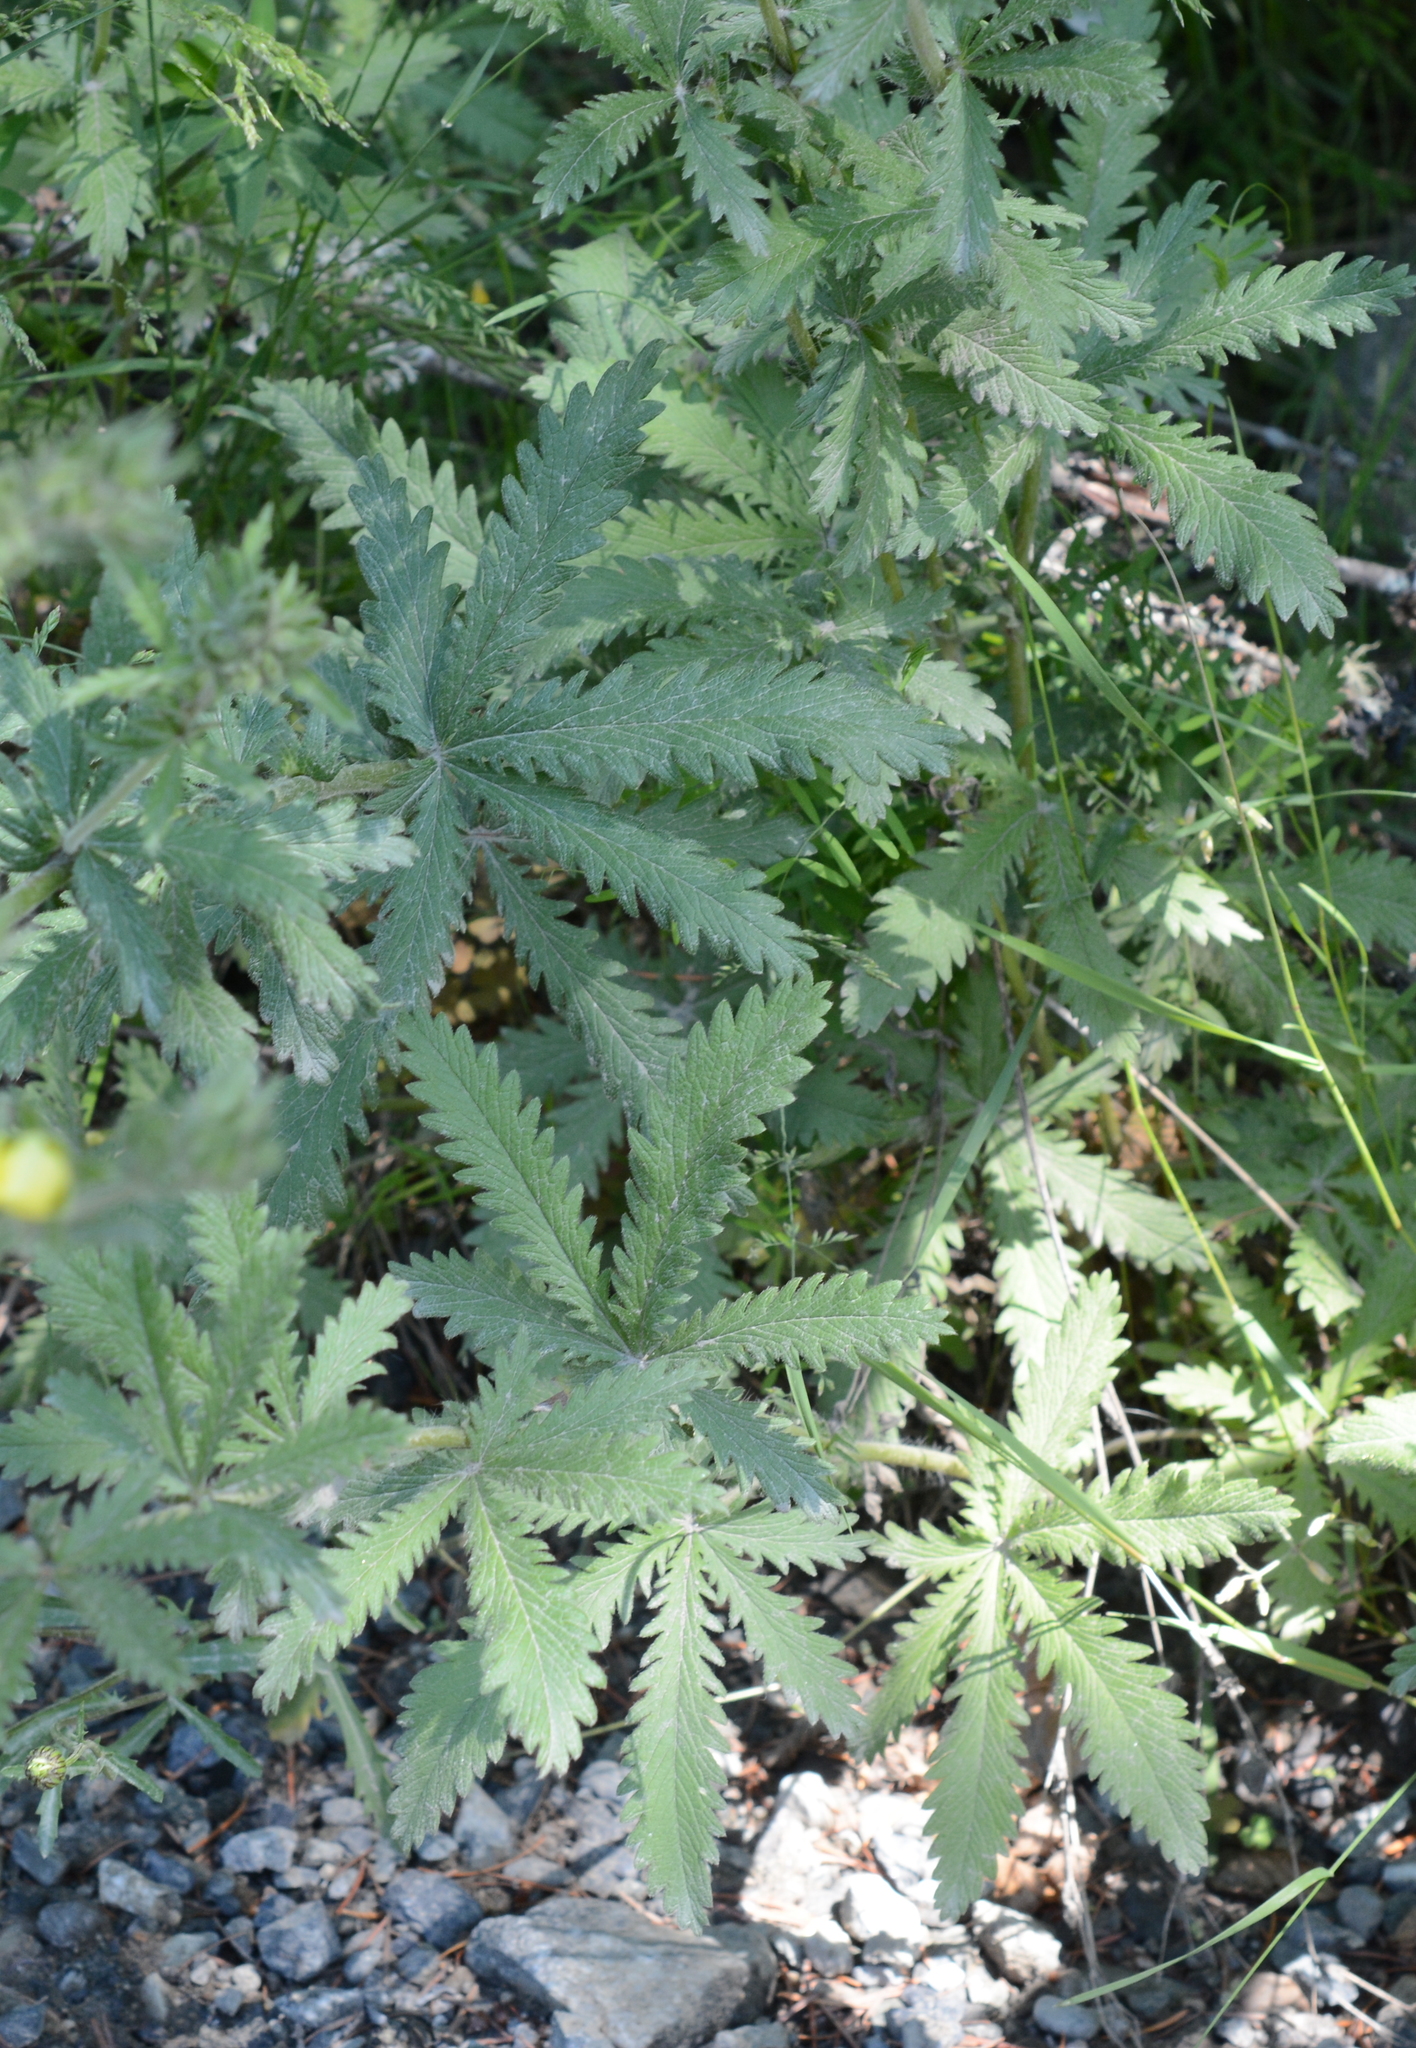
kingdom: Plantae
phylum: Tracheophyta
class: Magnoliopsida
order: Rosales
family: Rosaceae
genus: Potentilla
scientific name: Potentilla recta
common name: Sulphur cinquefoil
